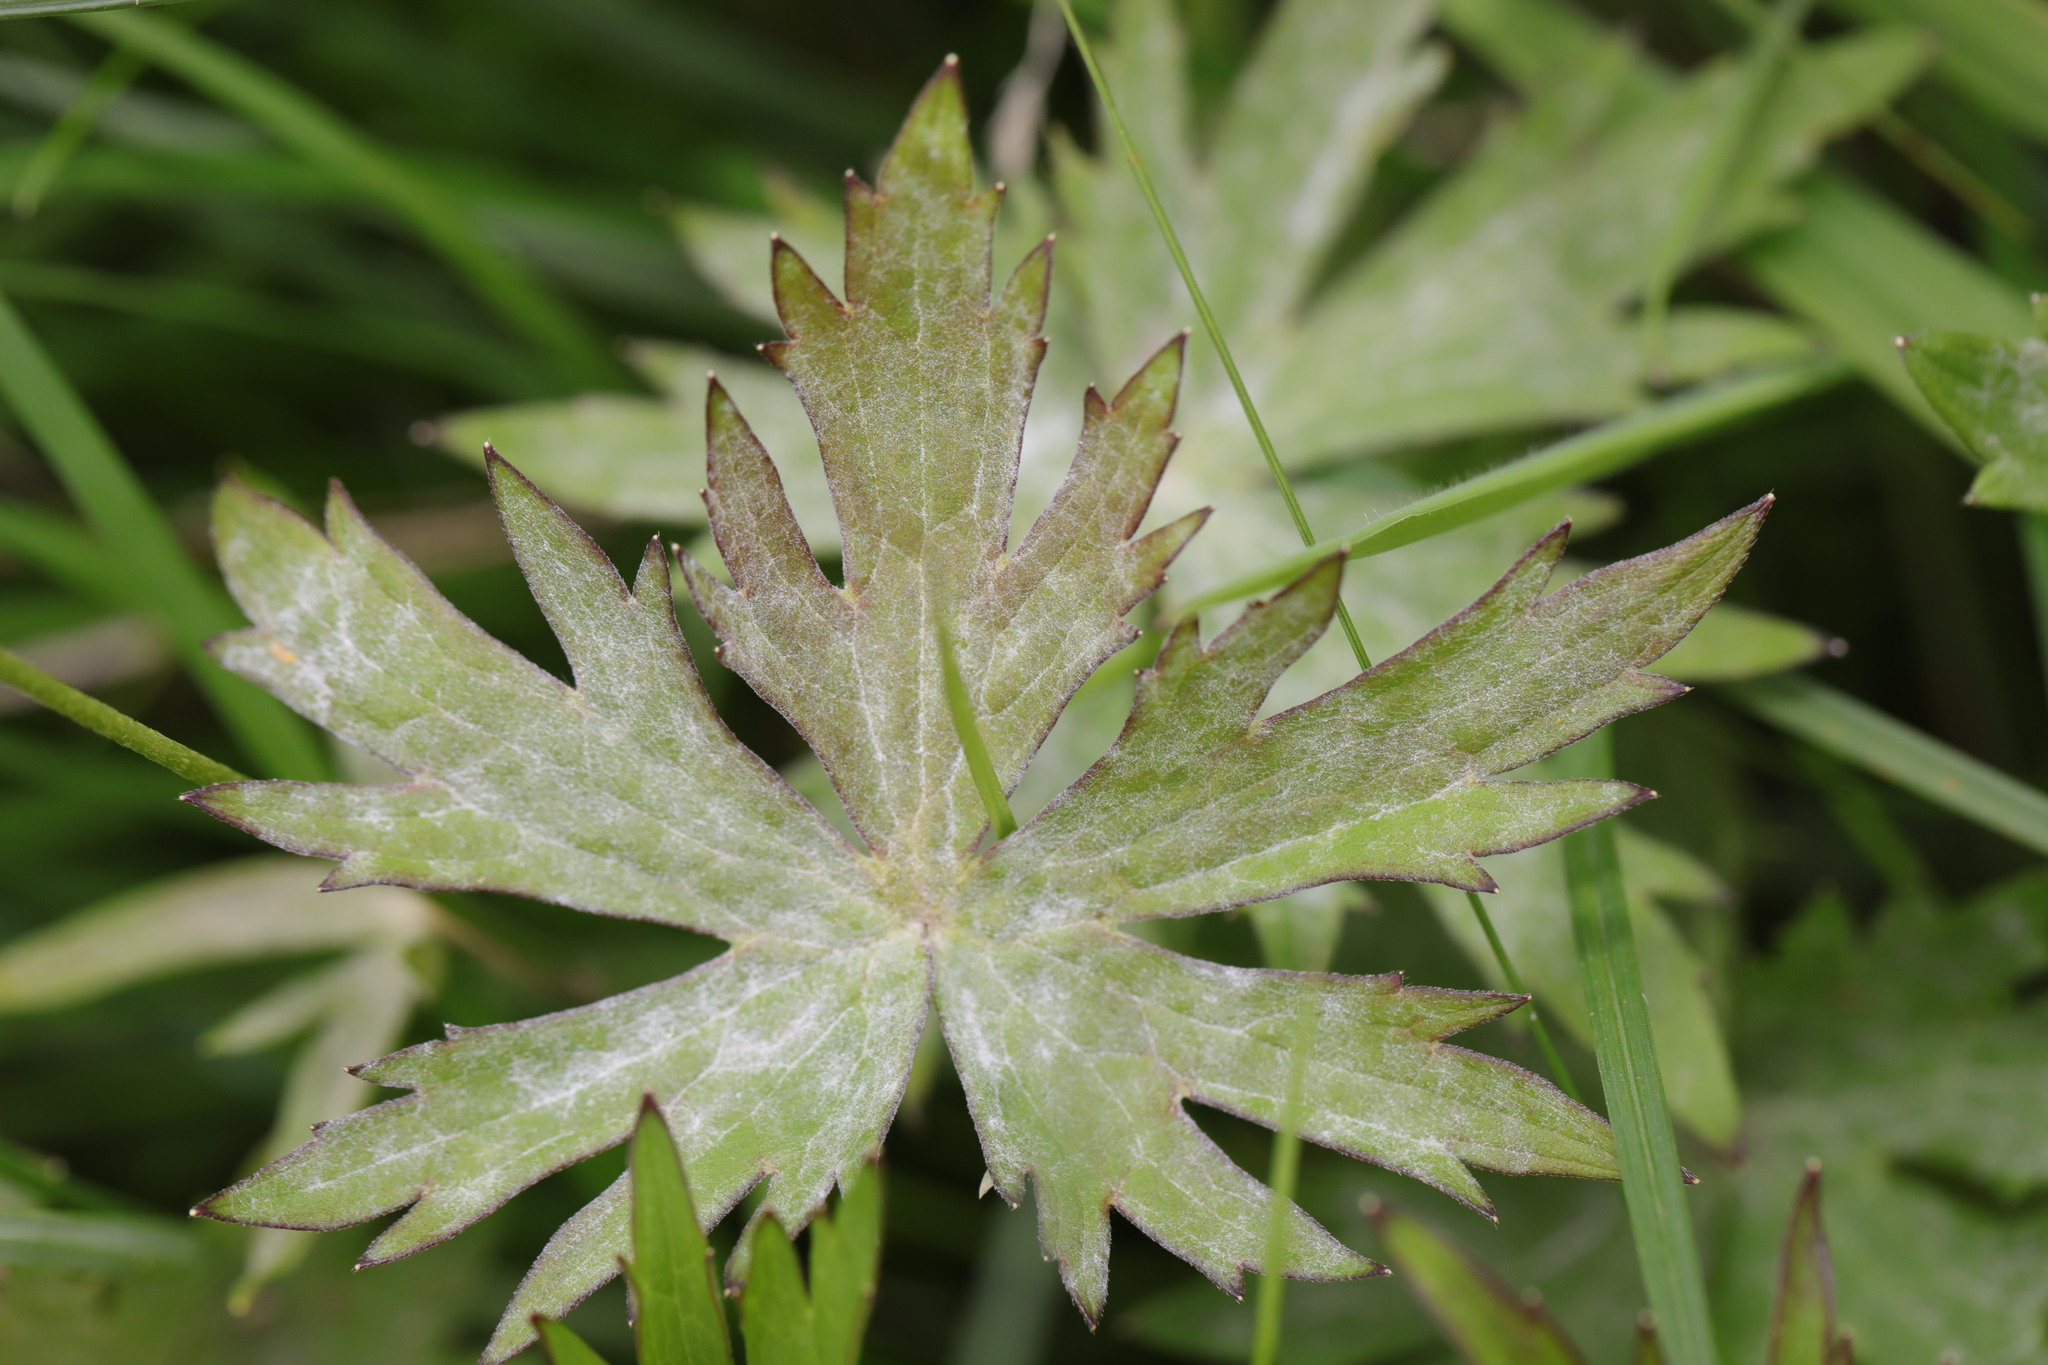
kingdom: Fungi
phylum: Ascomycota
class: Leotiomycetes
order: Helotiales
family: Erysiphaceae
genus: Erysiphe
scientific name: Erysiphe aquilegiae
